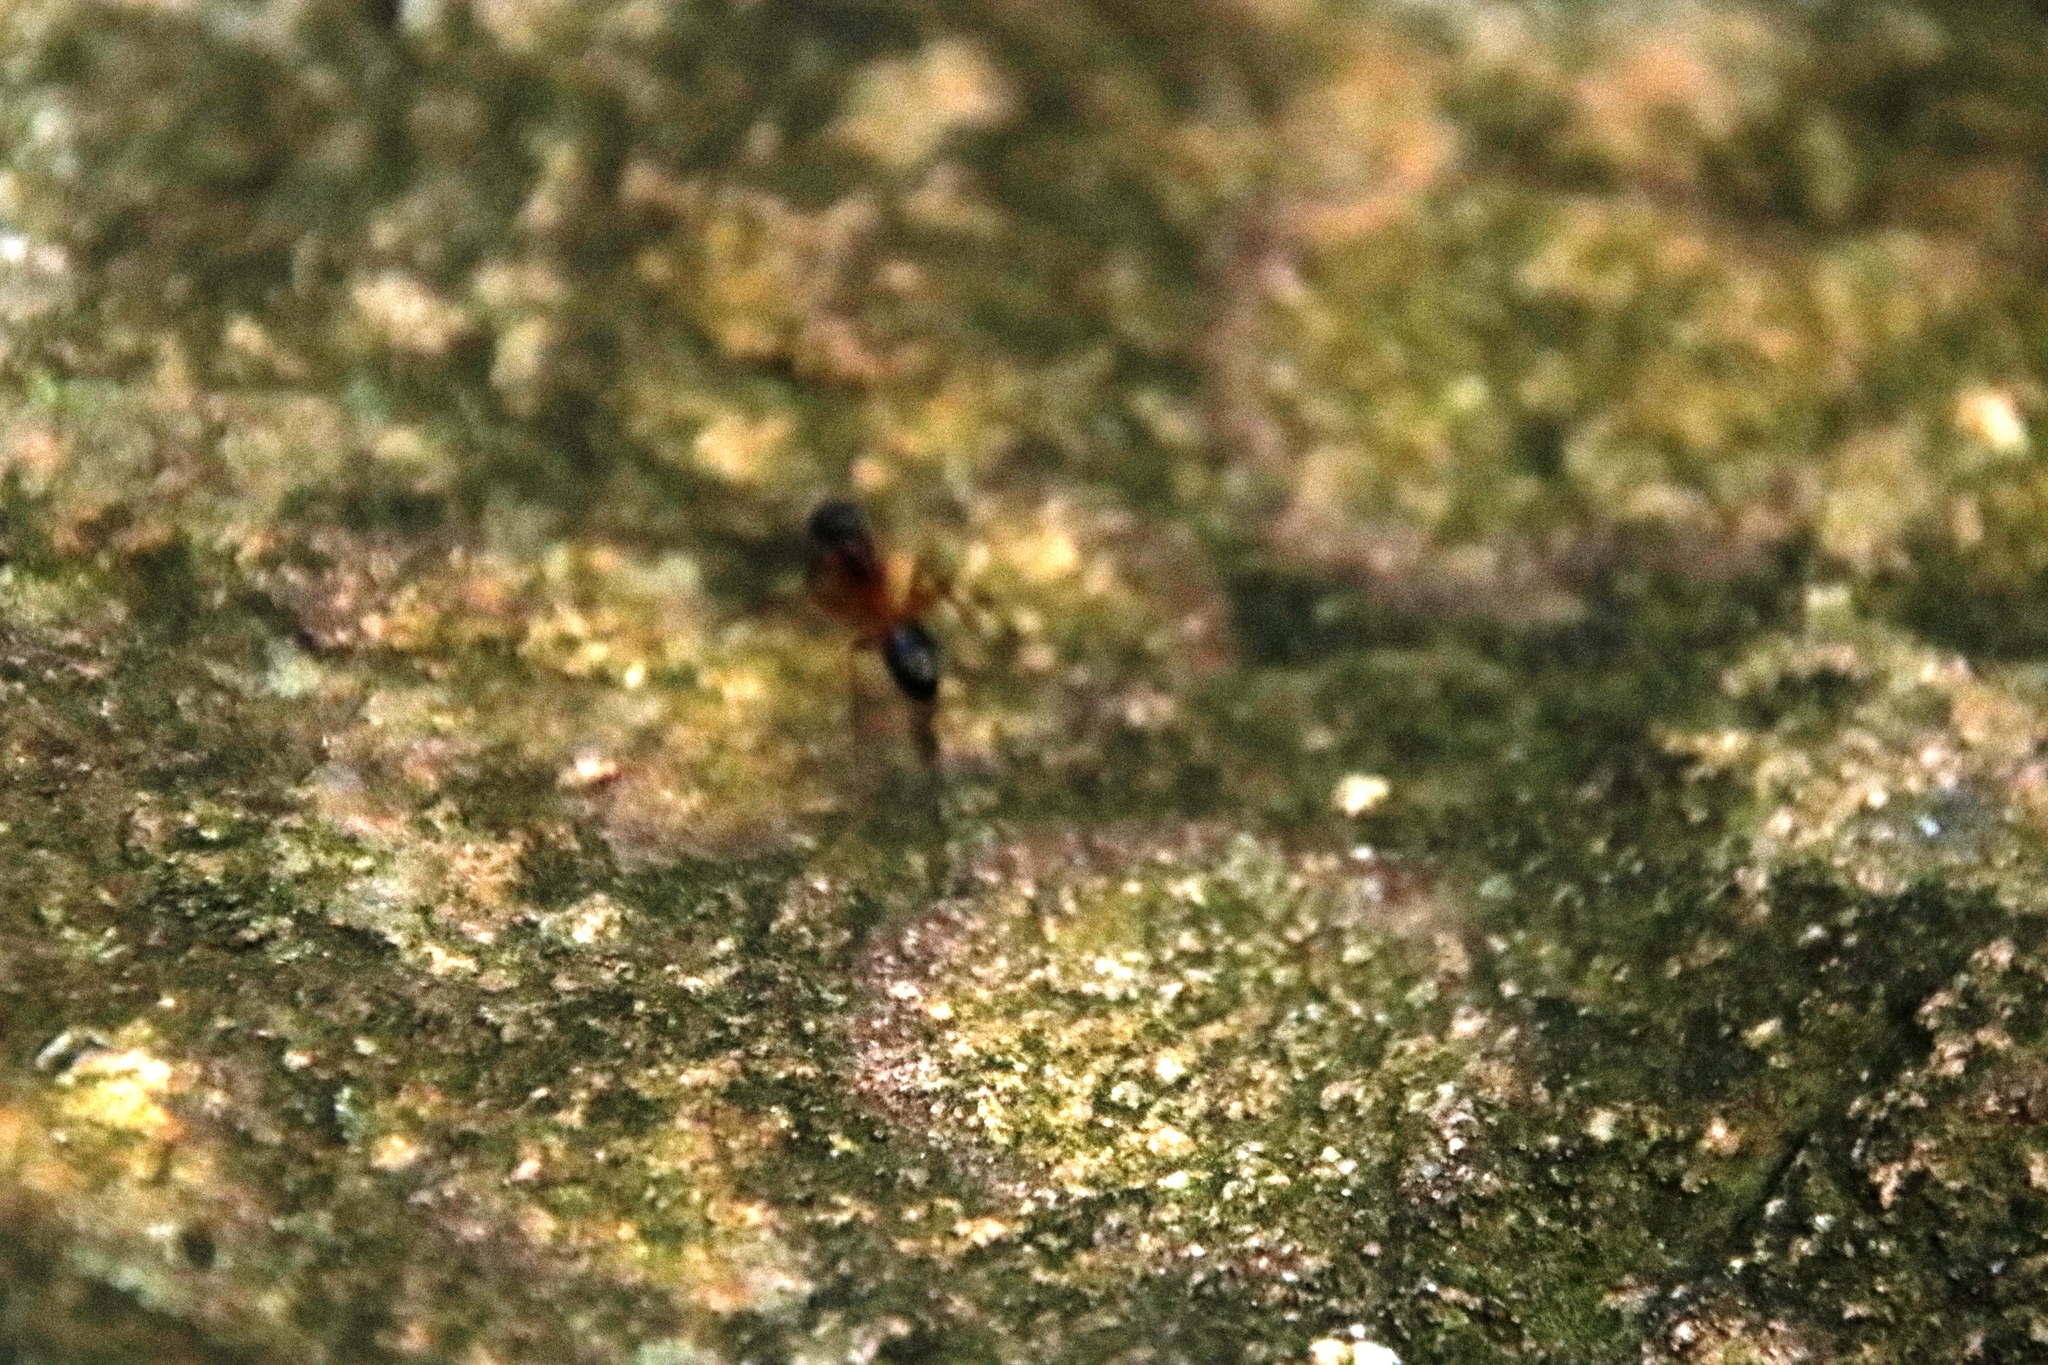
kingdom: Animalia
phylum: Arthropoda
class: Insecta
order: Hymenoptera
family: Formicidae
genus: Camponotus
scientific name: Camponotus baynei
